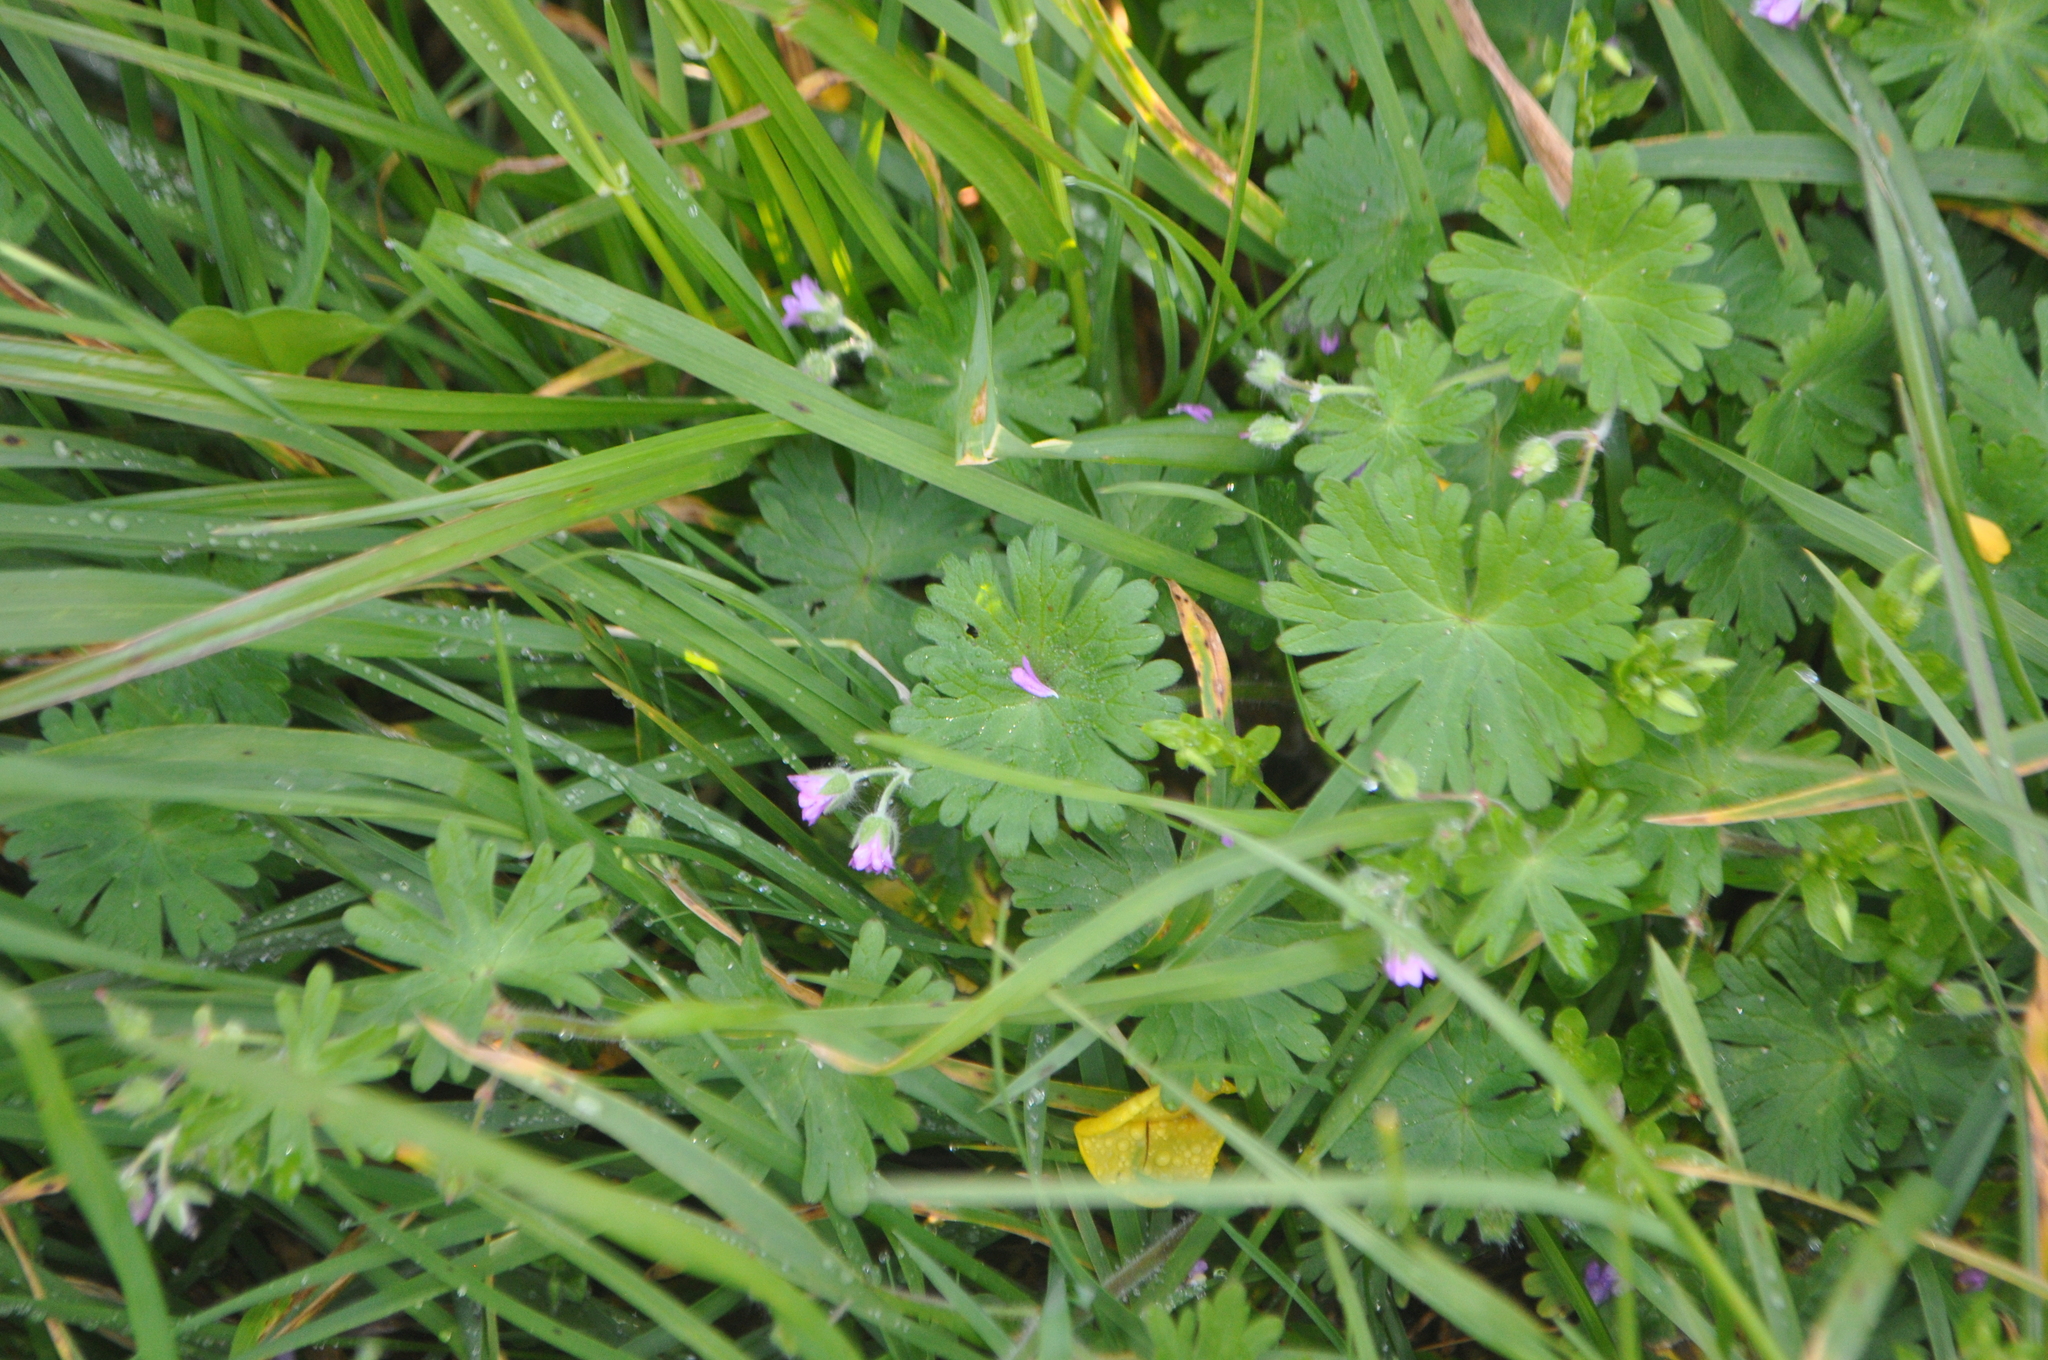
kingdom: Plantae
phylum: Tracheophyta
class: Magnoliopsida
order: Geraniales
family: Geraniaceae
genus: Geranium
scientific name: Geranium molle
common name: Dove's-foot crane's-bill
